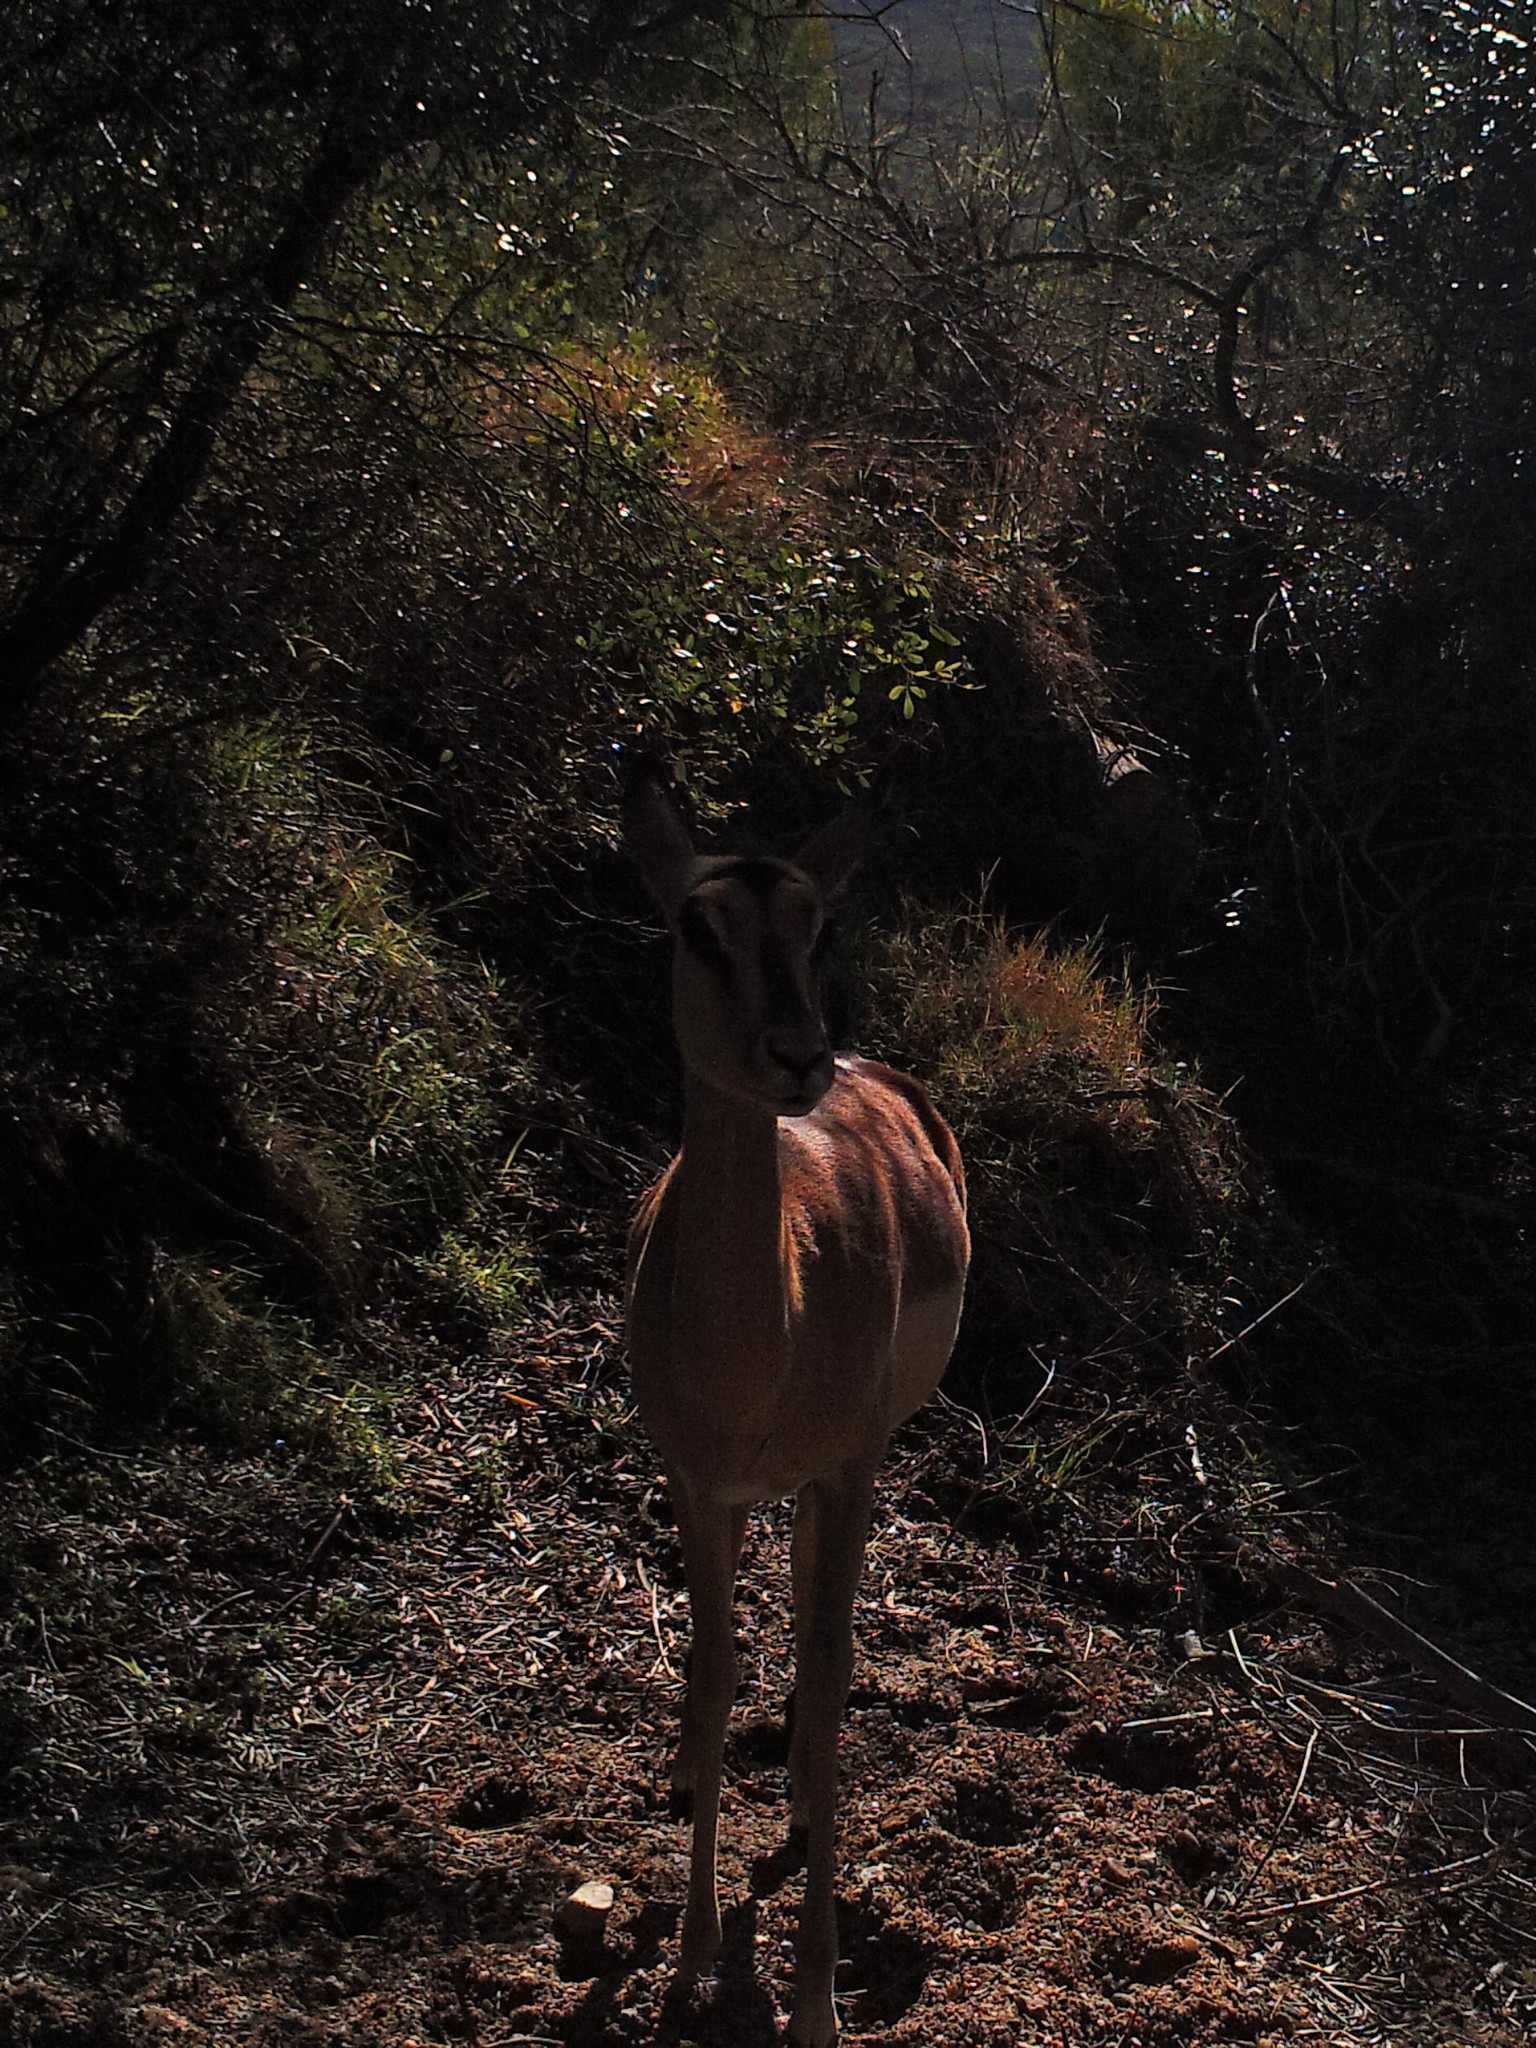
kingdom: Animalia
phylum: Chordata
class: Mammalia
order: Artiodactyla
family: Bovidae
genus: Aepyceros
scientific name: Aepyceros melampus
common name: Impala
